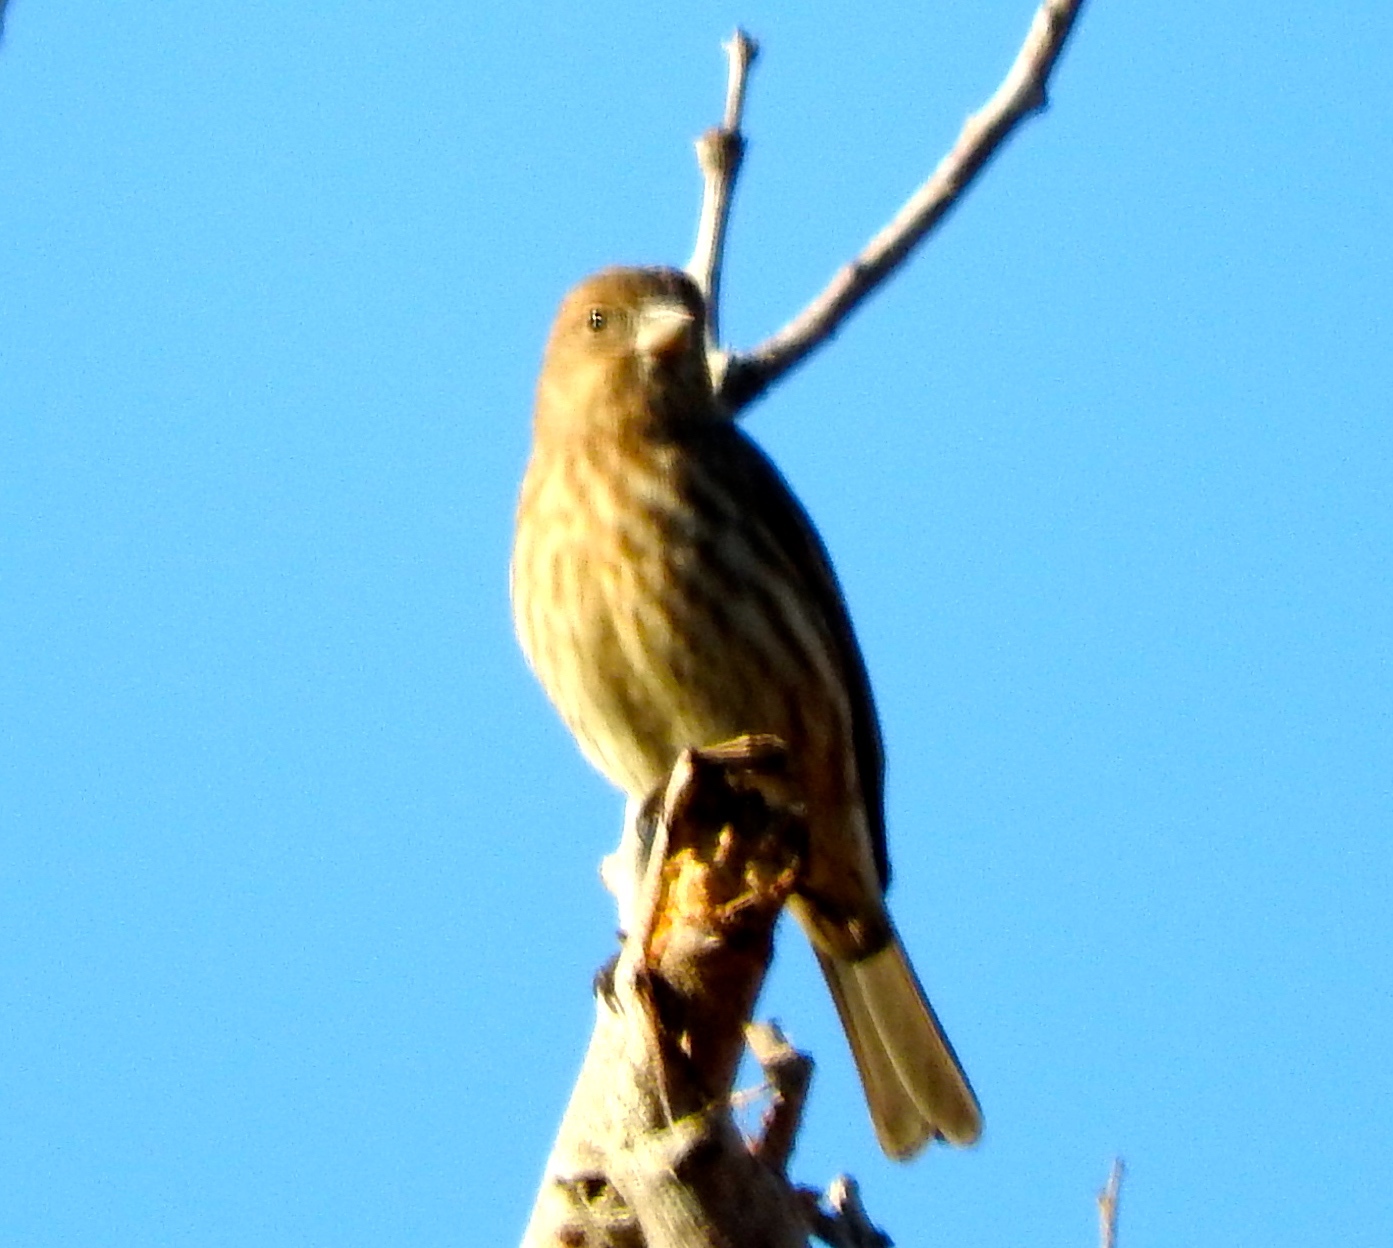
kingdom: Animalia
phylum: Chordata
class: Aves
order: Passeriformes
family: Fringillidae
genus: Haemorhous
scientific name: Haemorhous mexicanus
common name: House finch
